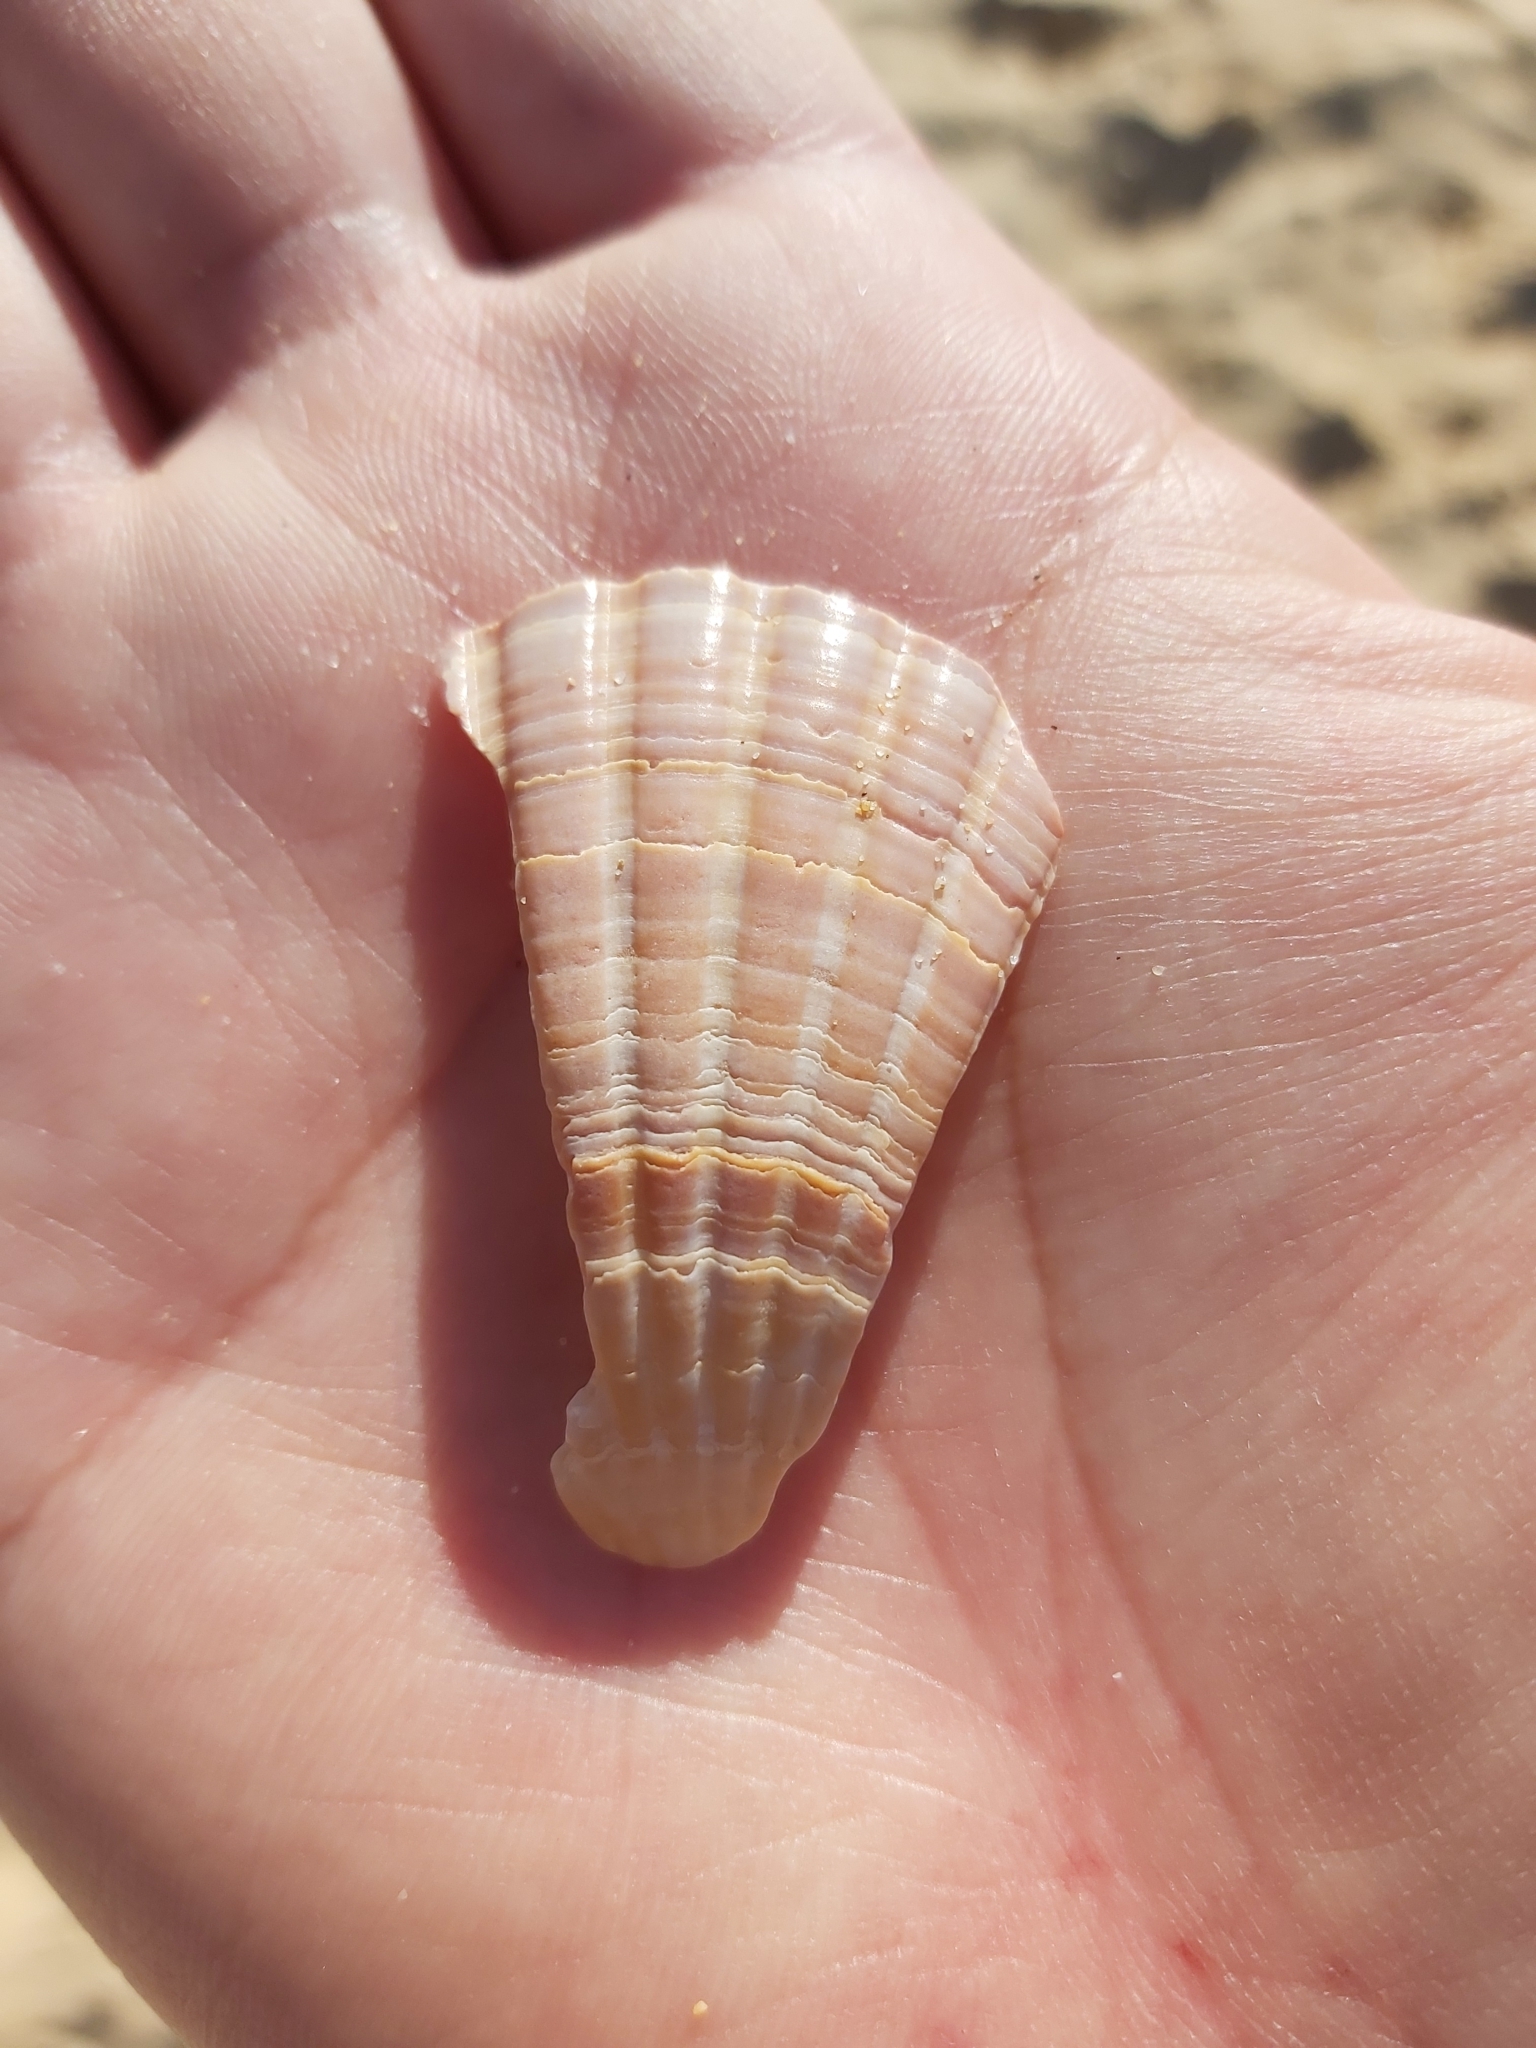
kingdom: Animalia
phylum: Mollusca
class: Bivalvia
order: Pectinida
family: Pectinidae
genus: Pecten
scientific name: Pecten fumatus
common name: Australian scallop
